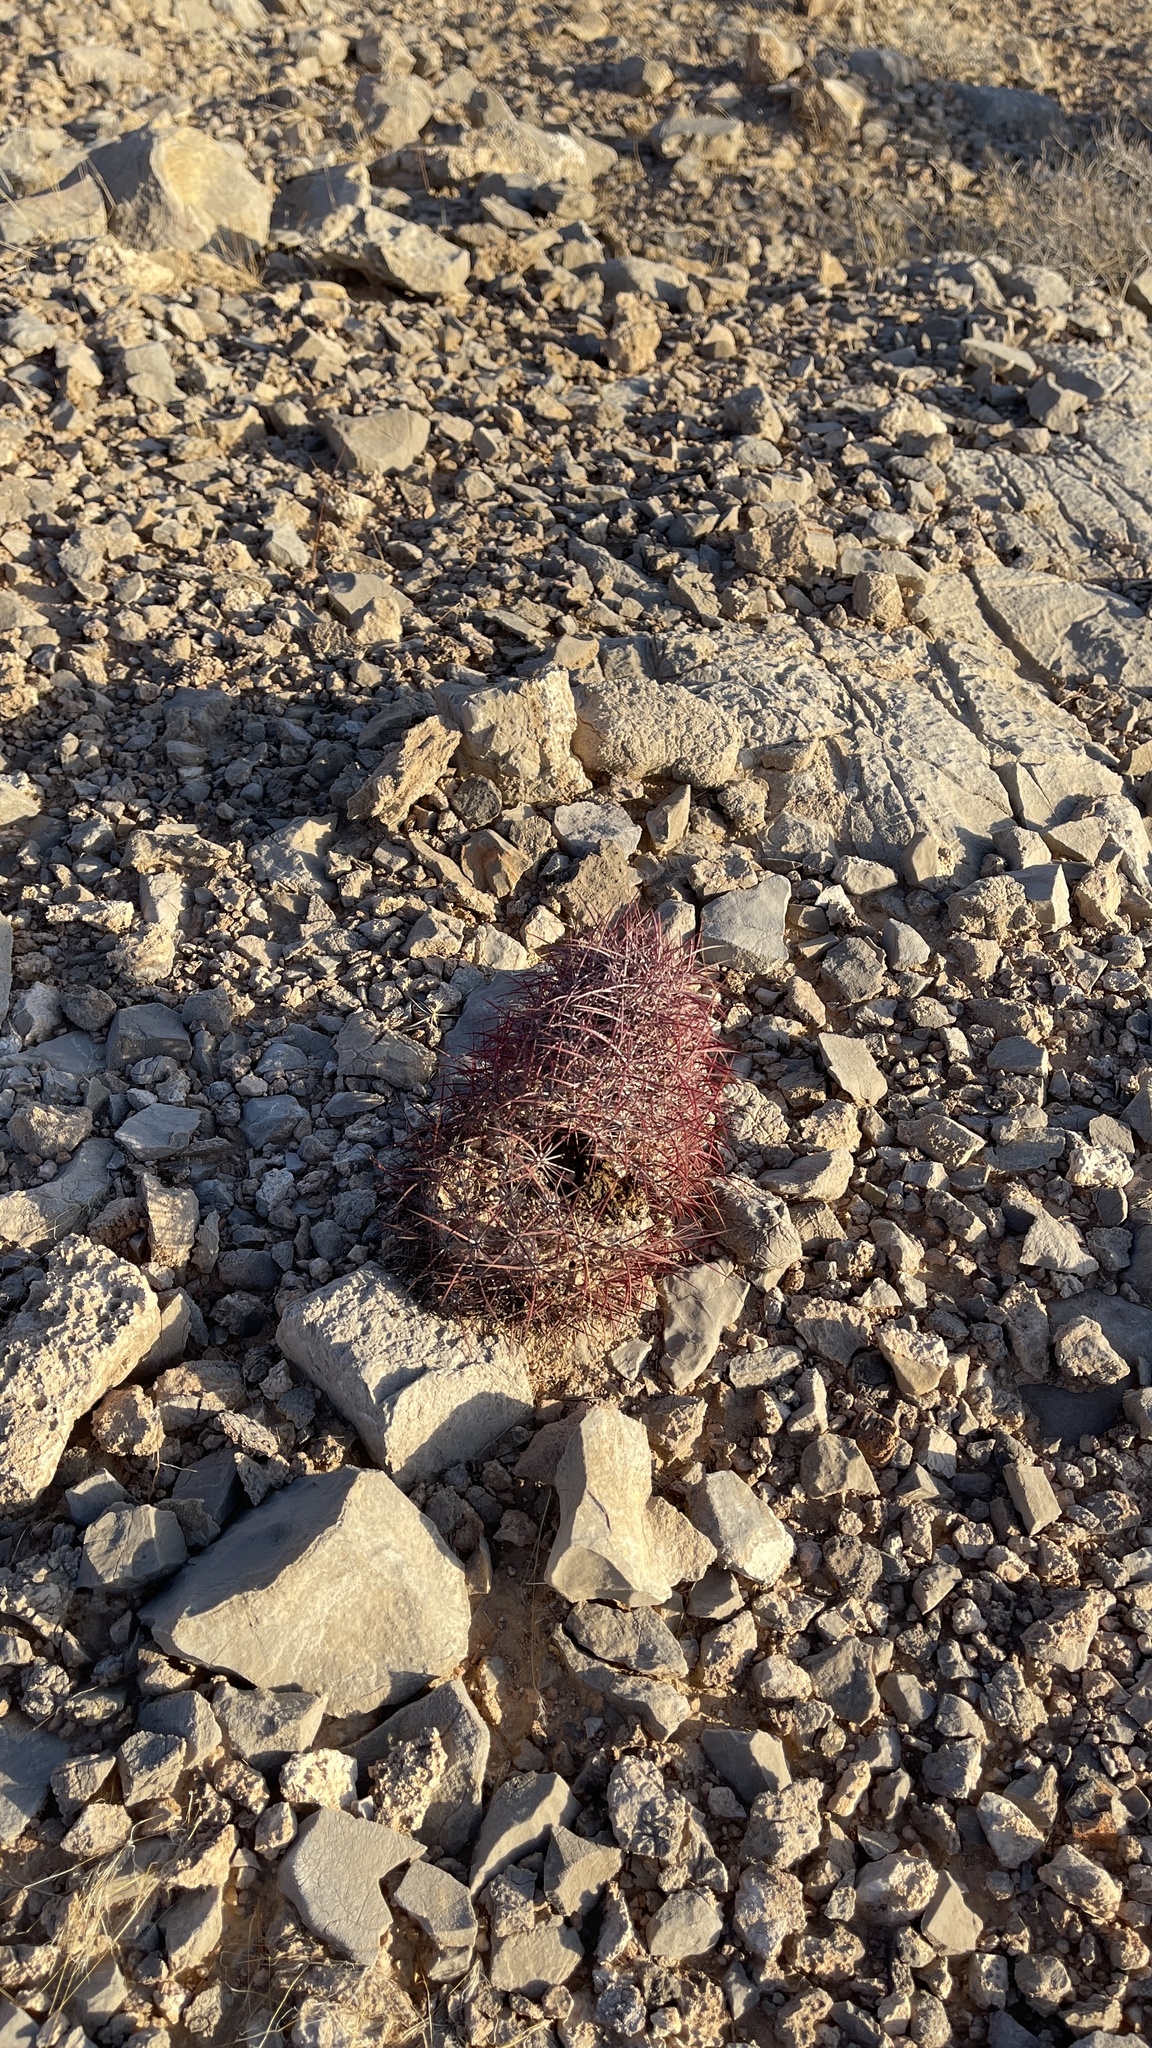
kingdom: Plantae
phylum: Tracheophyta
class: Magnoliopsida
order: Caryophyllales
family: Cactaceae
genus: Sclerocactus
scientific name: Sclerocactus johnsonii
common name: Eight-spine fishhook cactus
